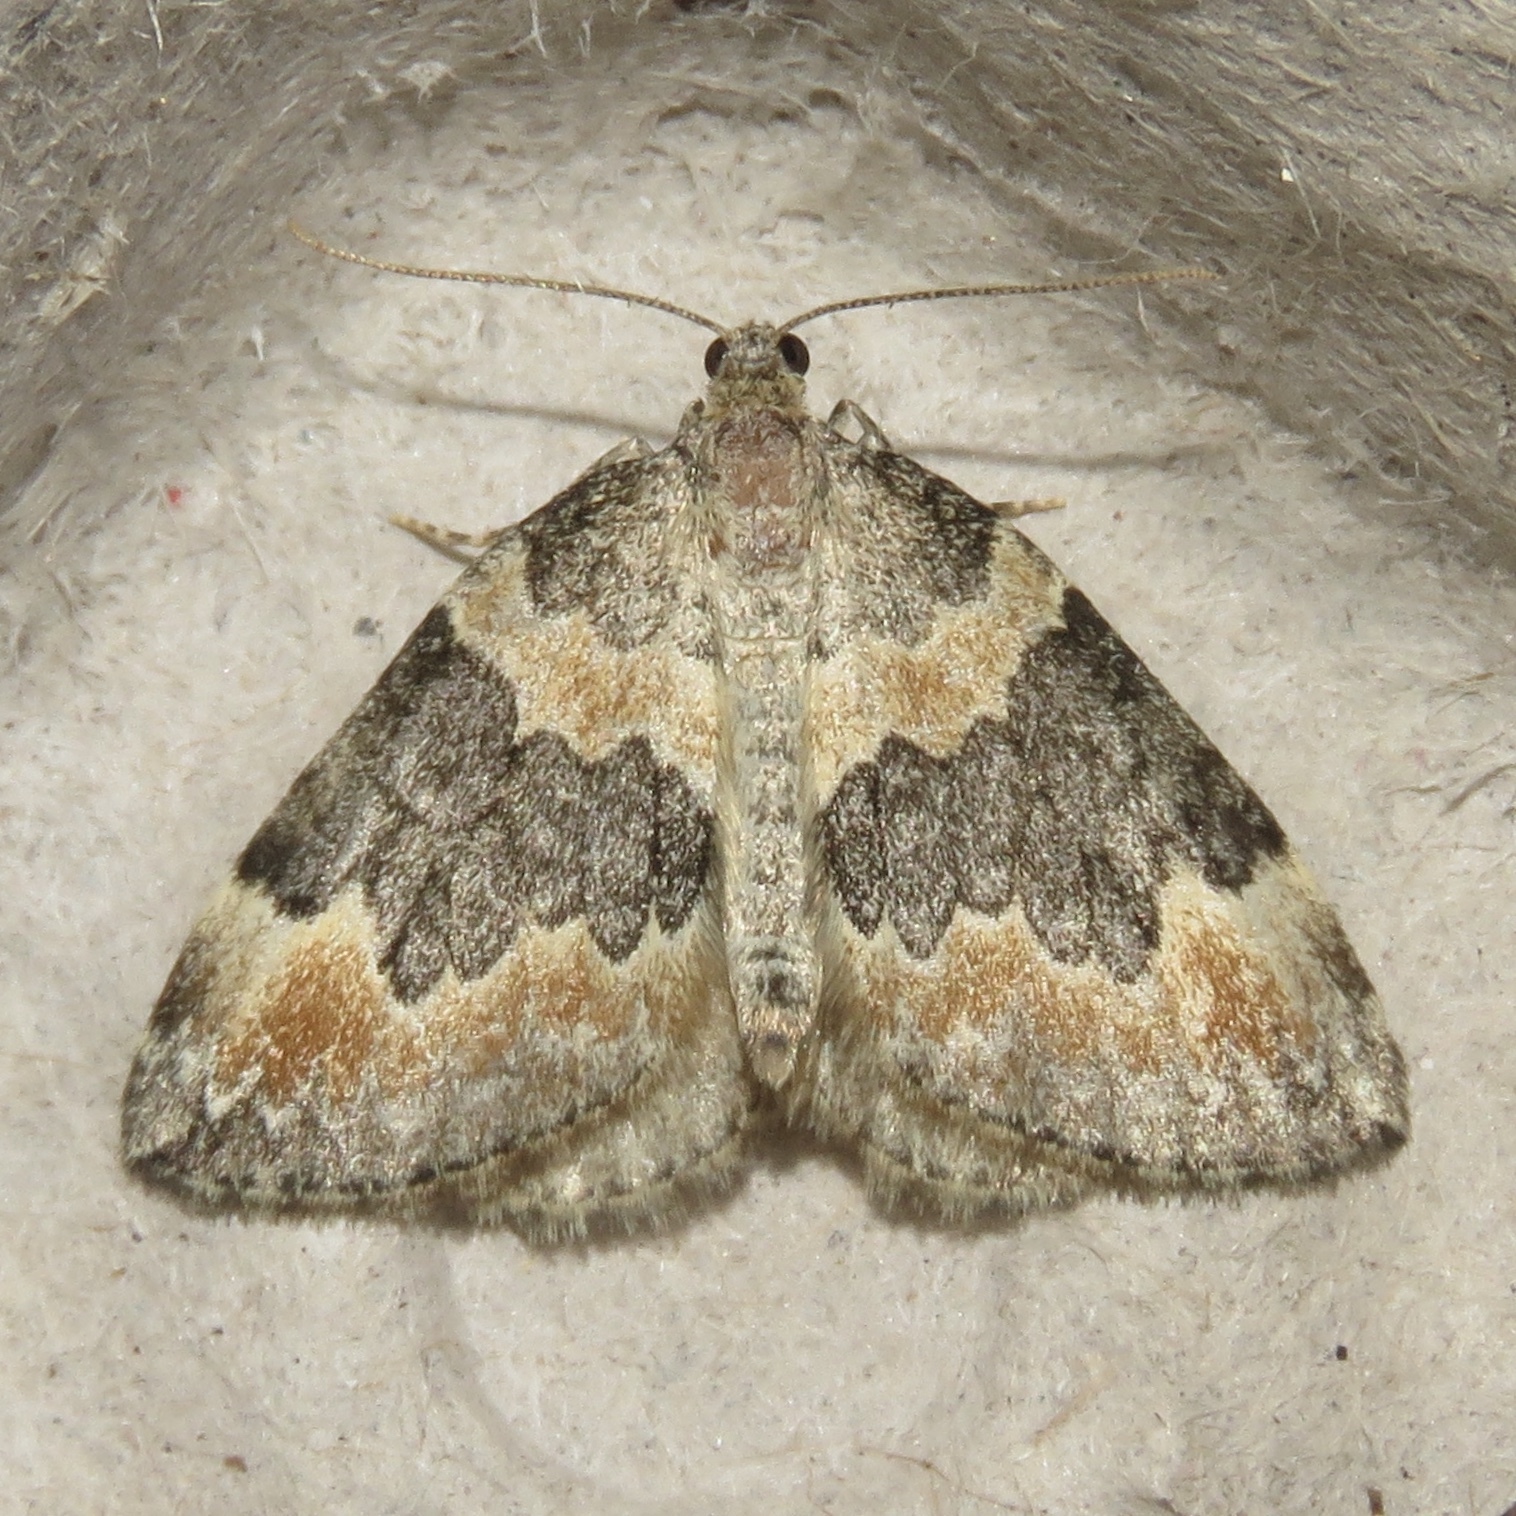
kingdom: Animalia
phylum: Arthropoda
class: Insecta
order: Lepidoptera
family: Geometridae
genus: Dysstroma
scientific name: Dysstroma brunneata
